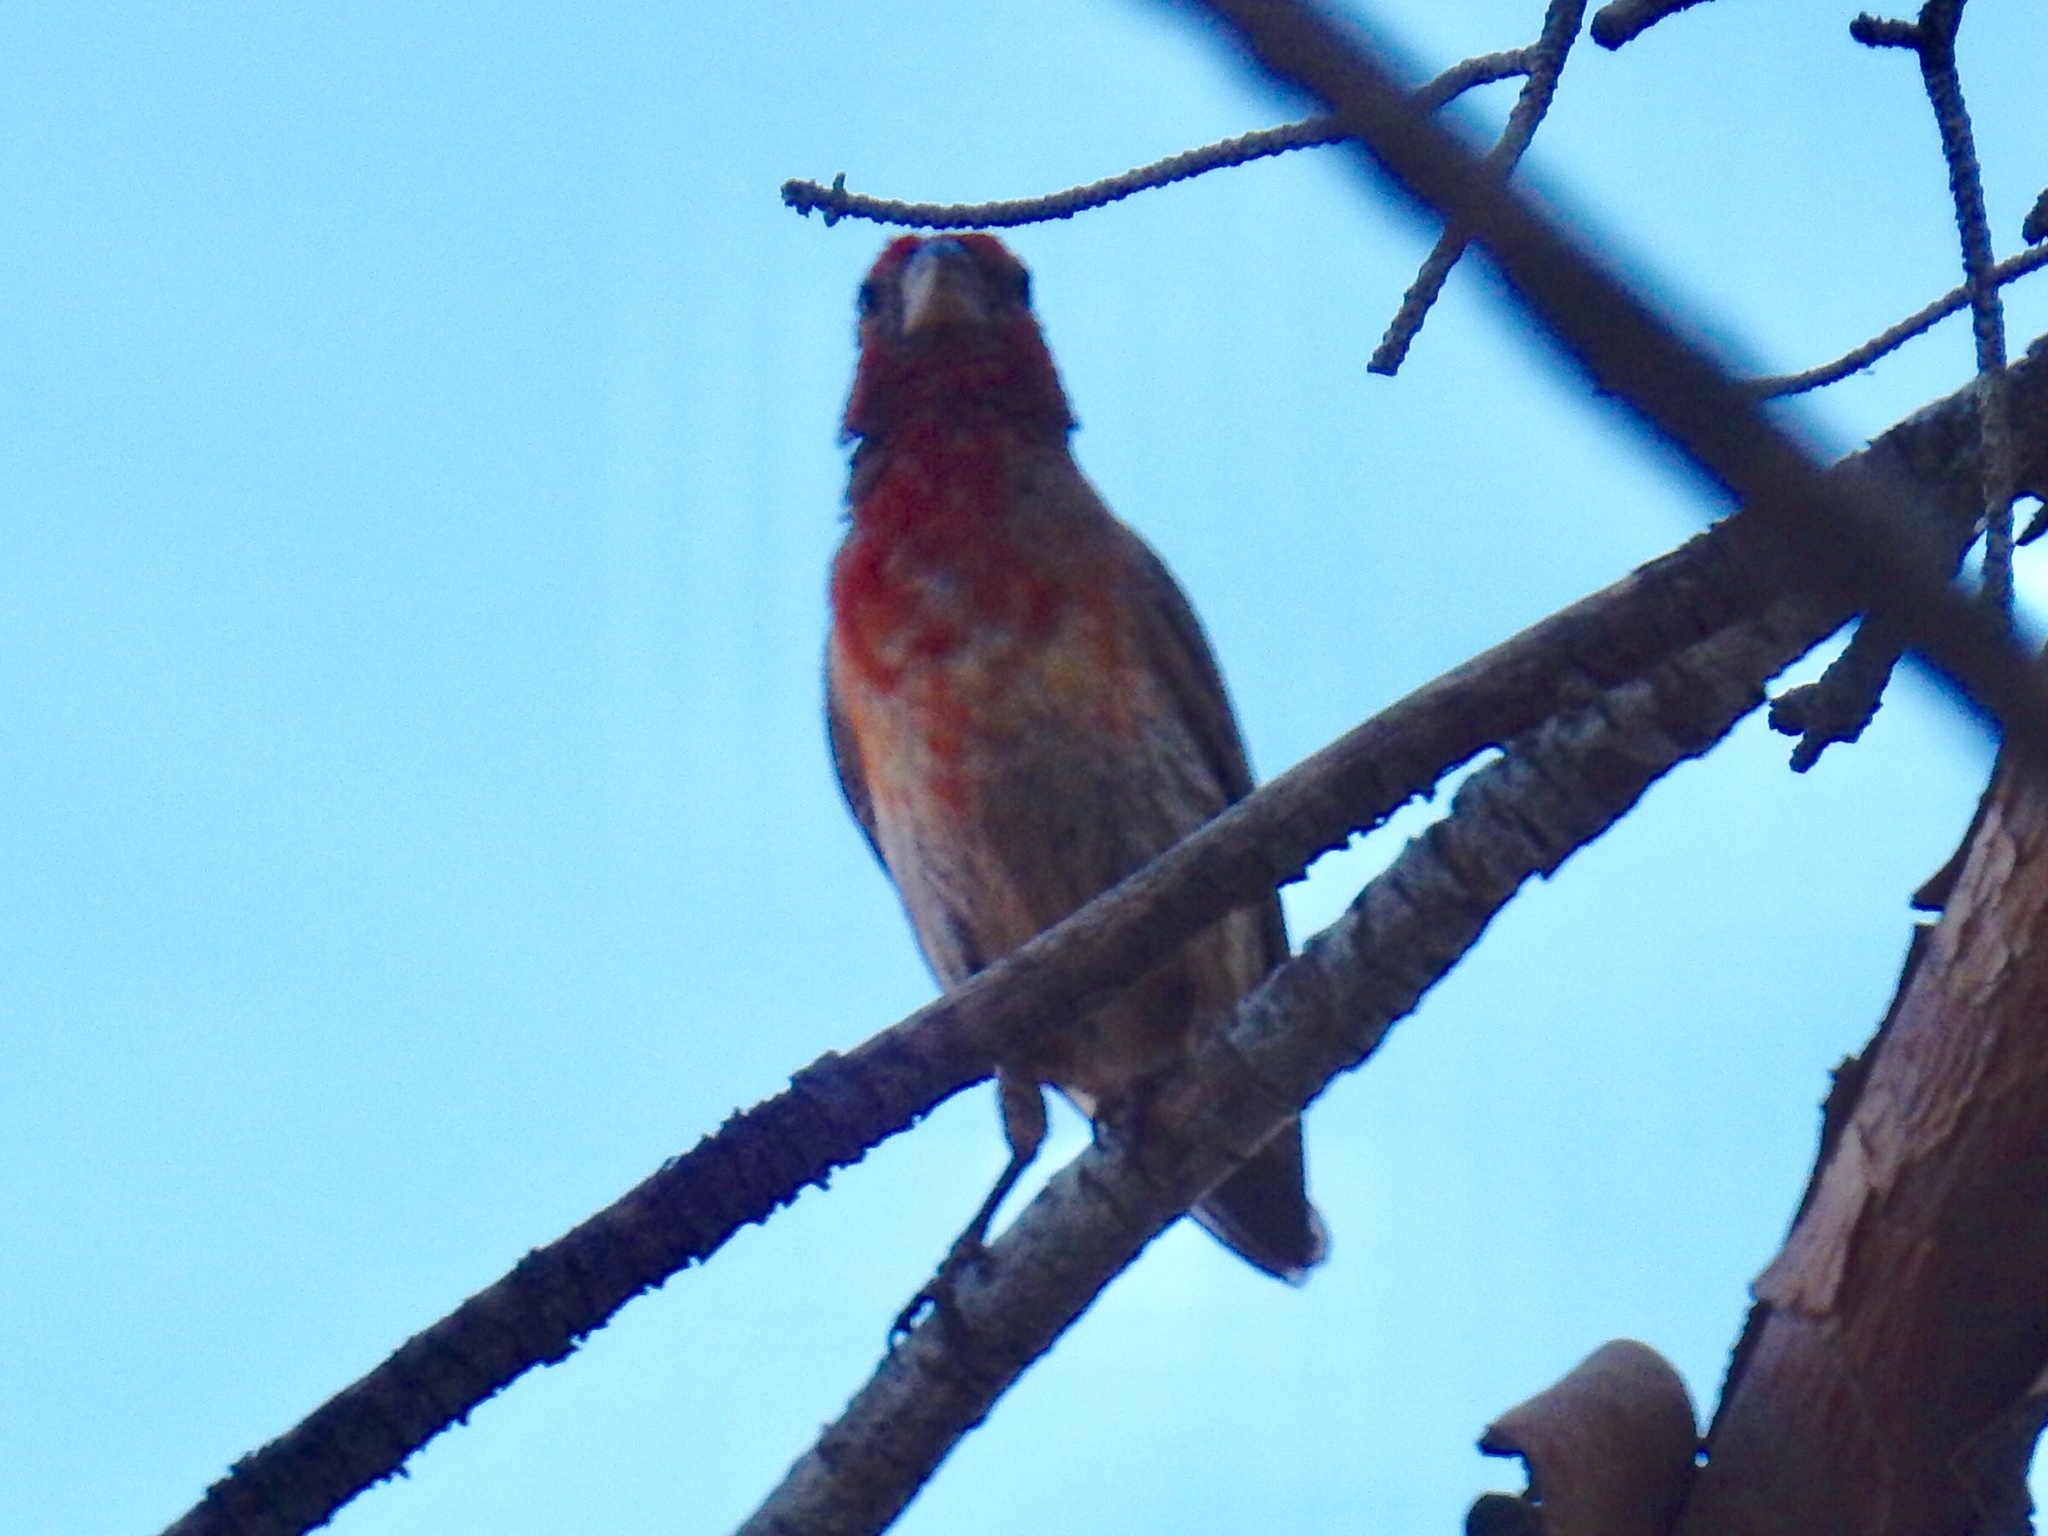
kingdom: Animalia
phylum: Chordata
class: Aves
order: Passeriformes
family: Fringillidae
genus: Haemorhous
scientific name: Haemorhous mexicanus
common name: House finch
